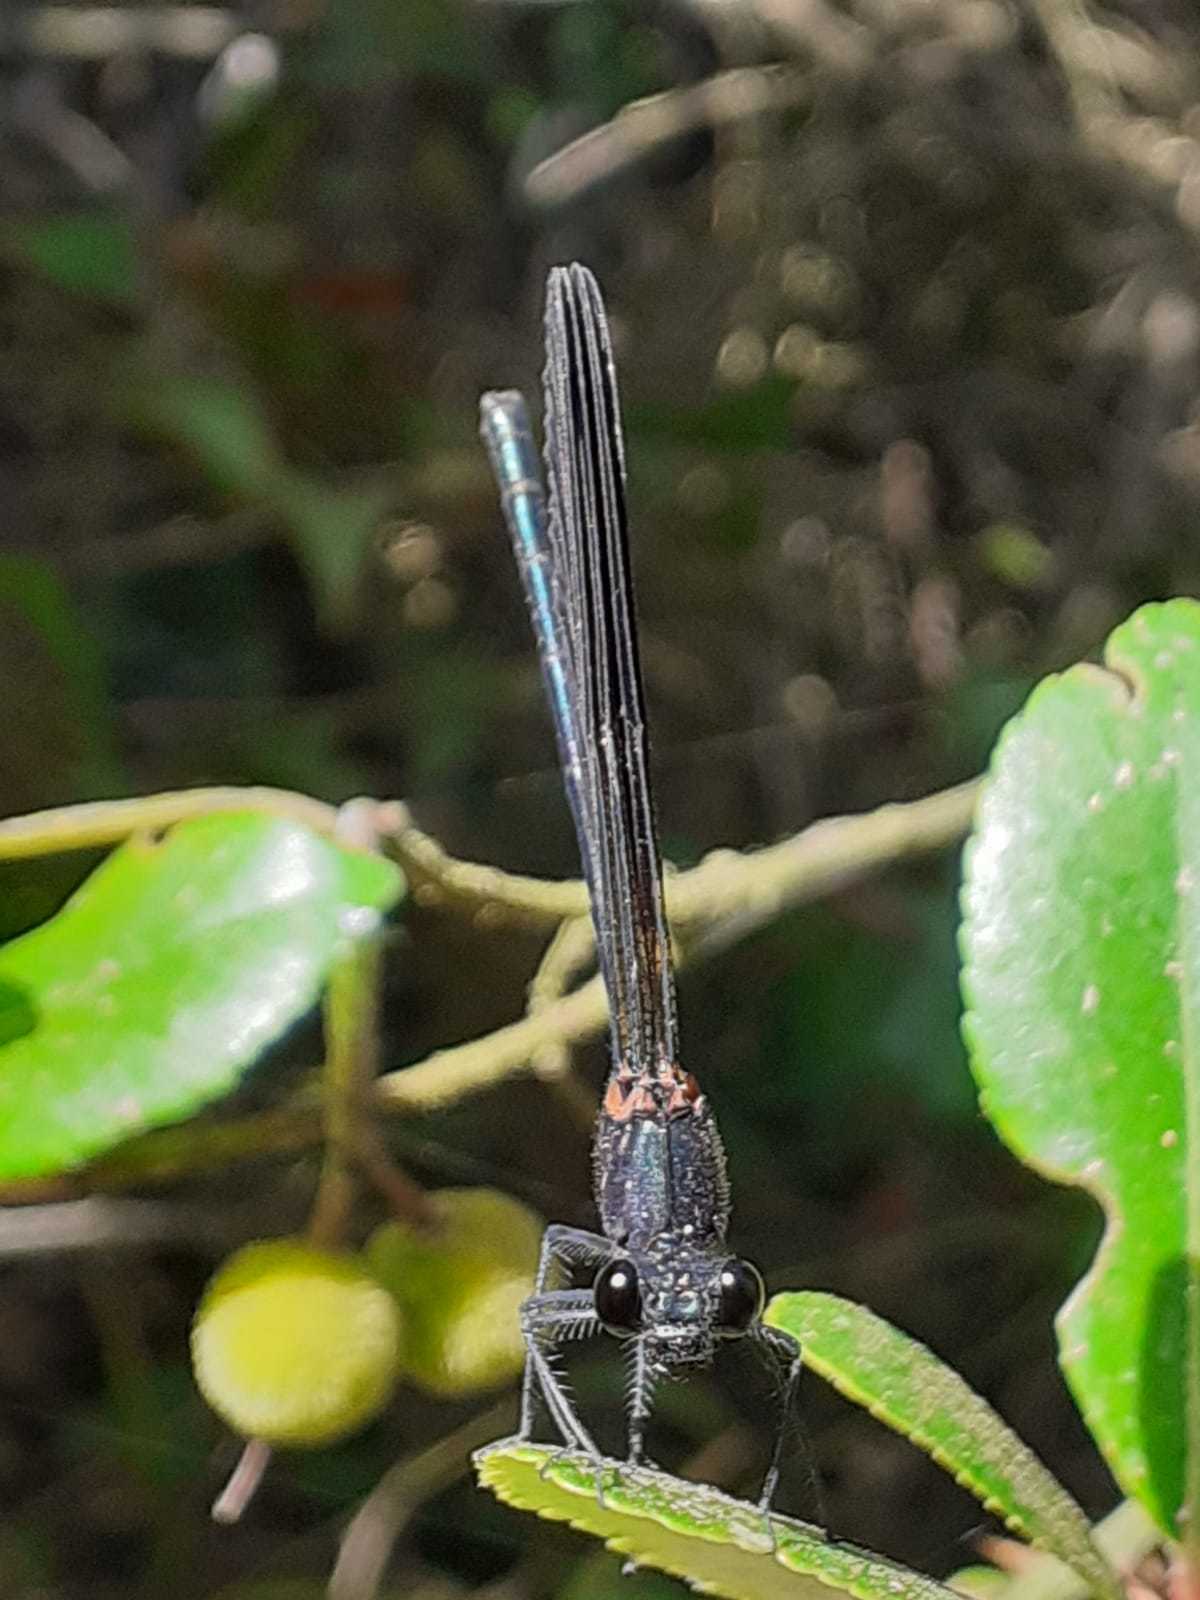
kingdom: Animalia
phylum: Arthropoda
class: Insecta
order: Odonata
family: Calopterygidae
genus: Calopteryx
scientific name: Calopteryx haemorrhoidalis
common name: Copper demoiselle
